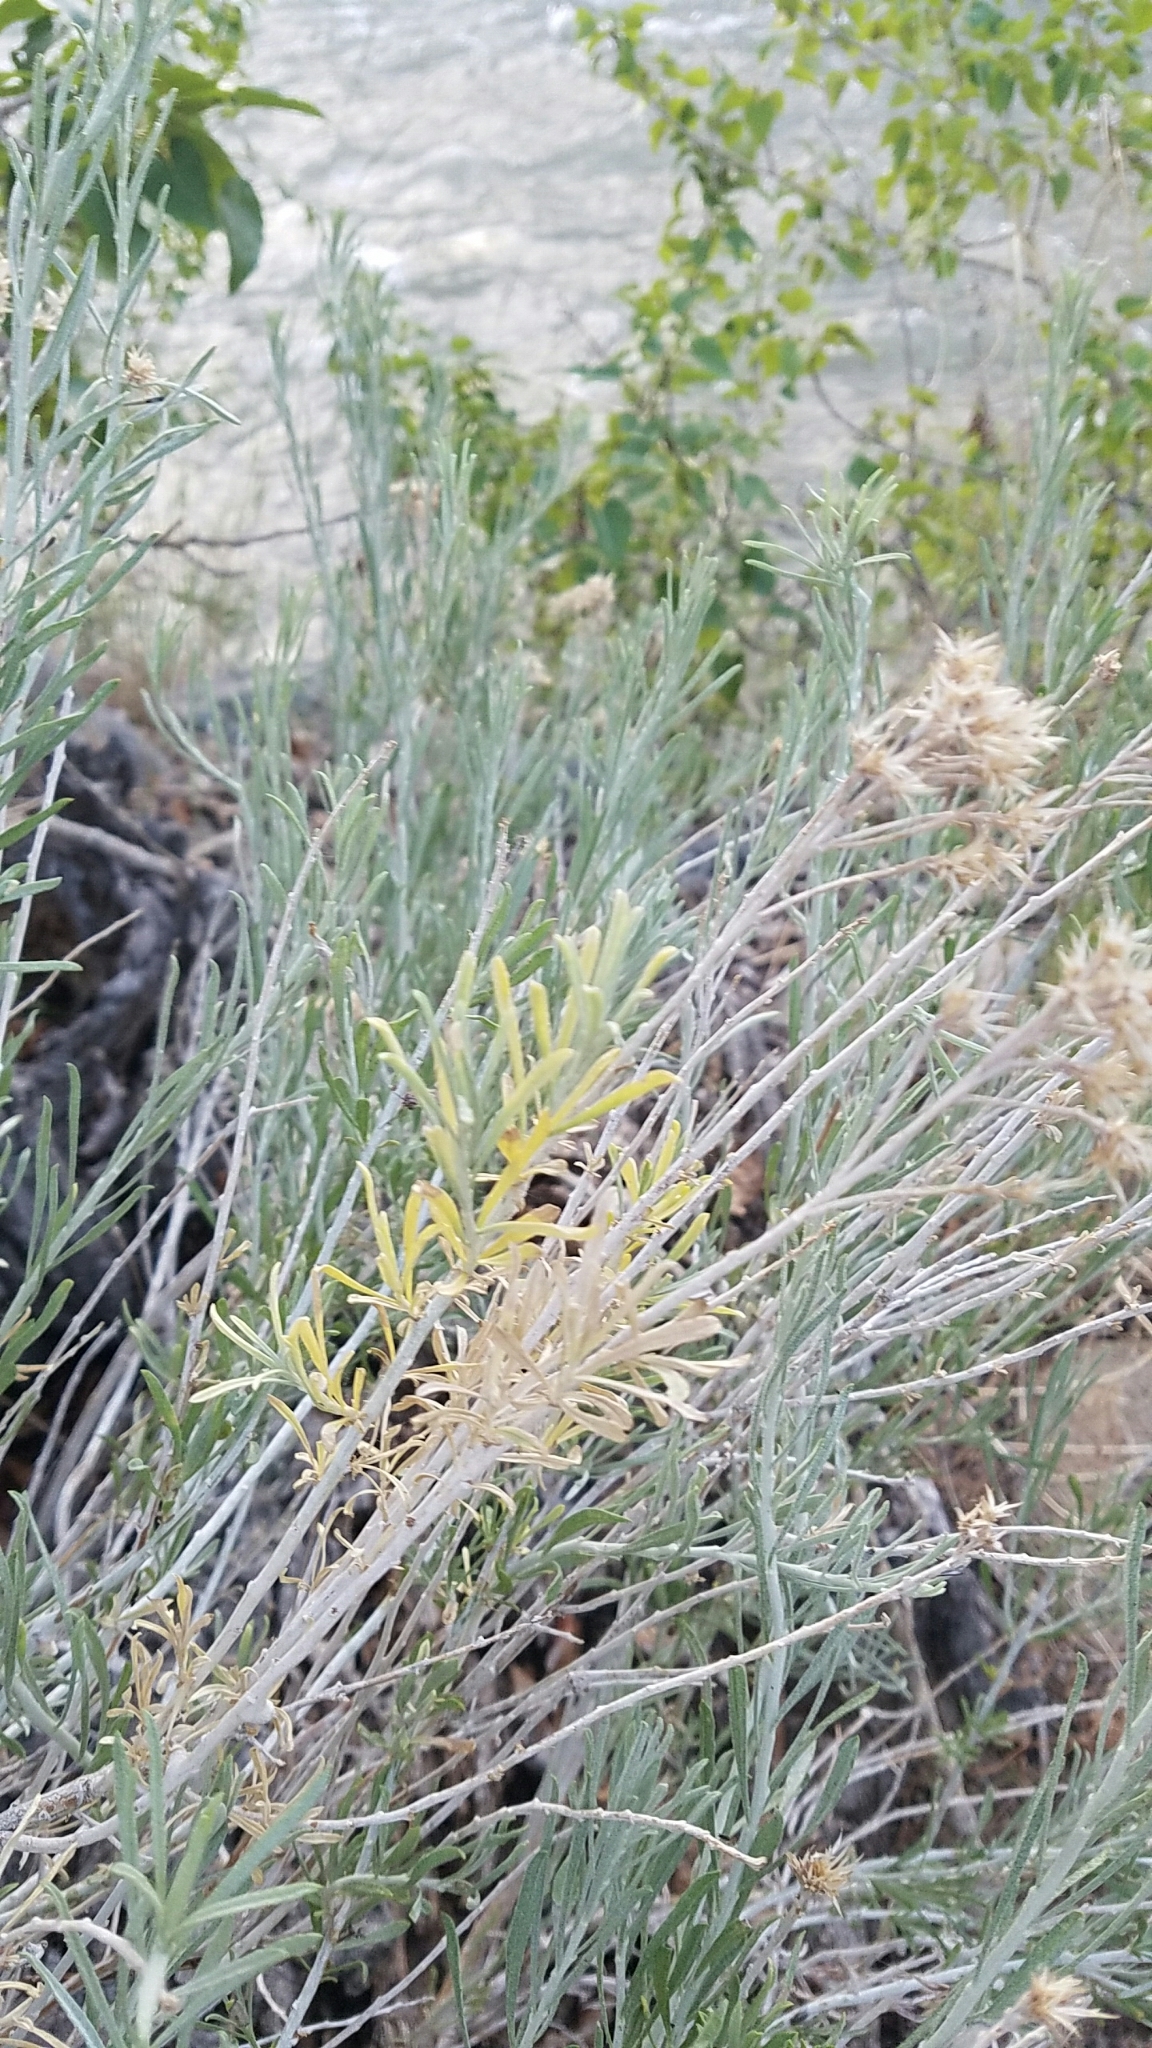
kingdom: Plantae
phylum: Tracheophyta
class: Magnoliopsida
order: Asterales
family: Asteraceae
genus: Ericameria
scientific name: Ericameria nauseosa
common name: Rubber rabbitbrush
